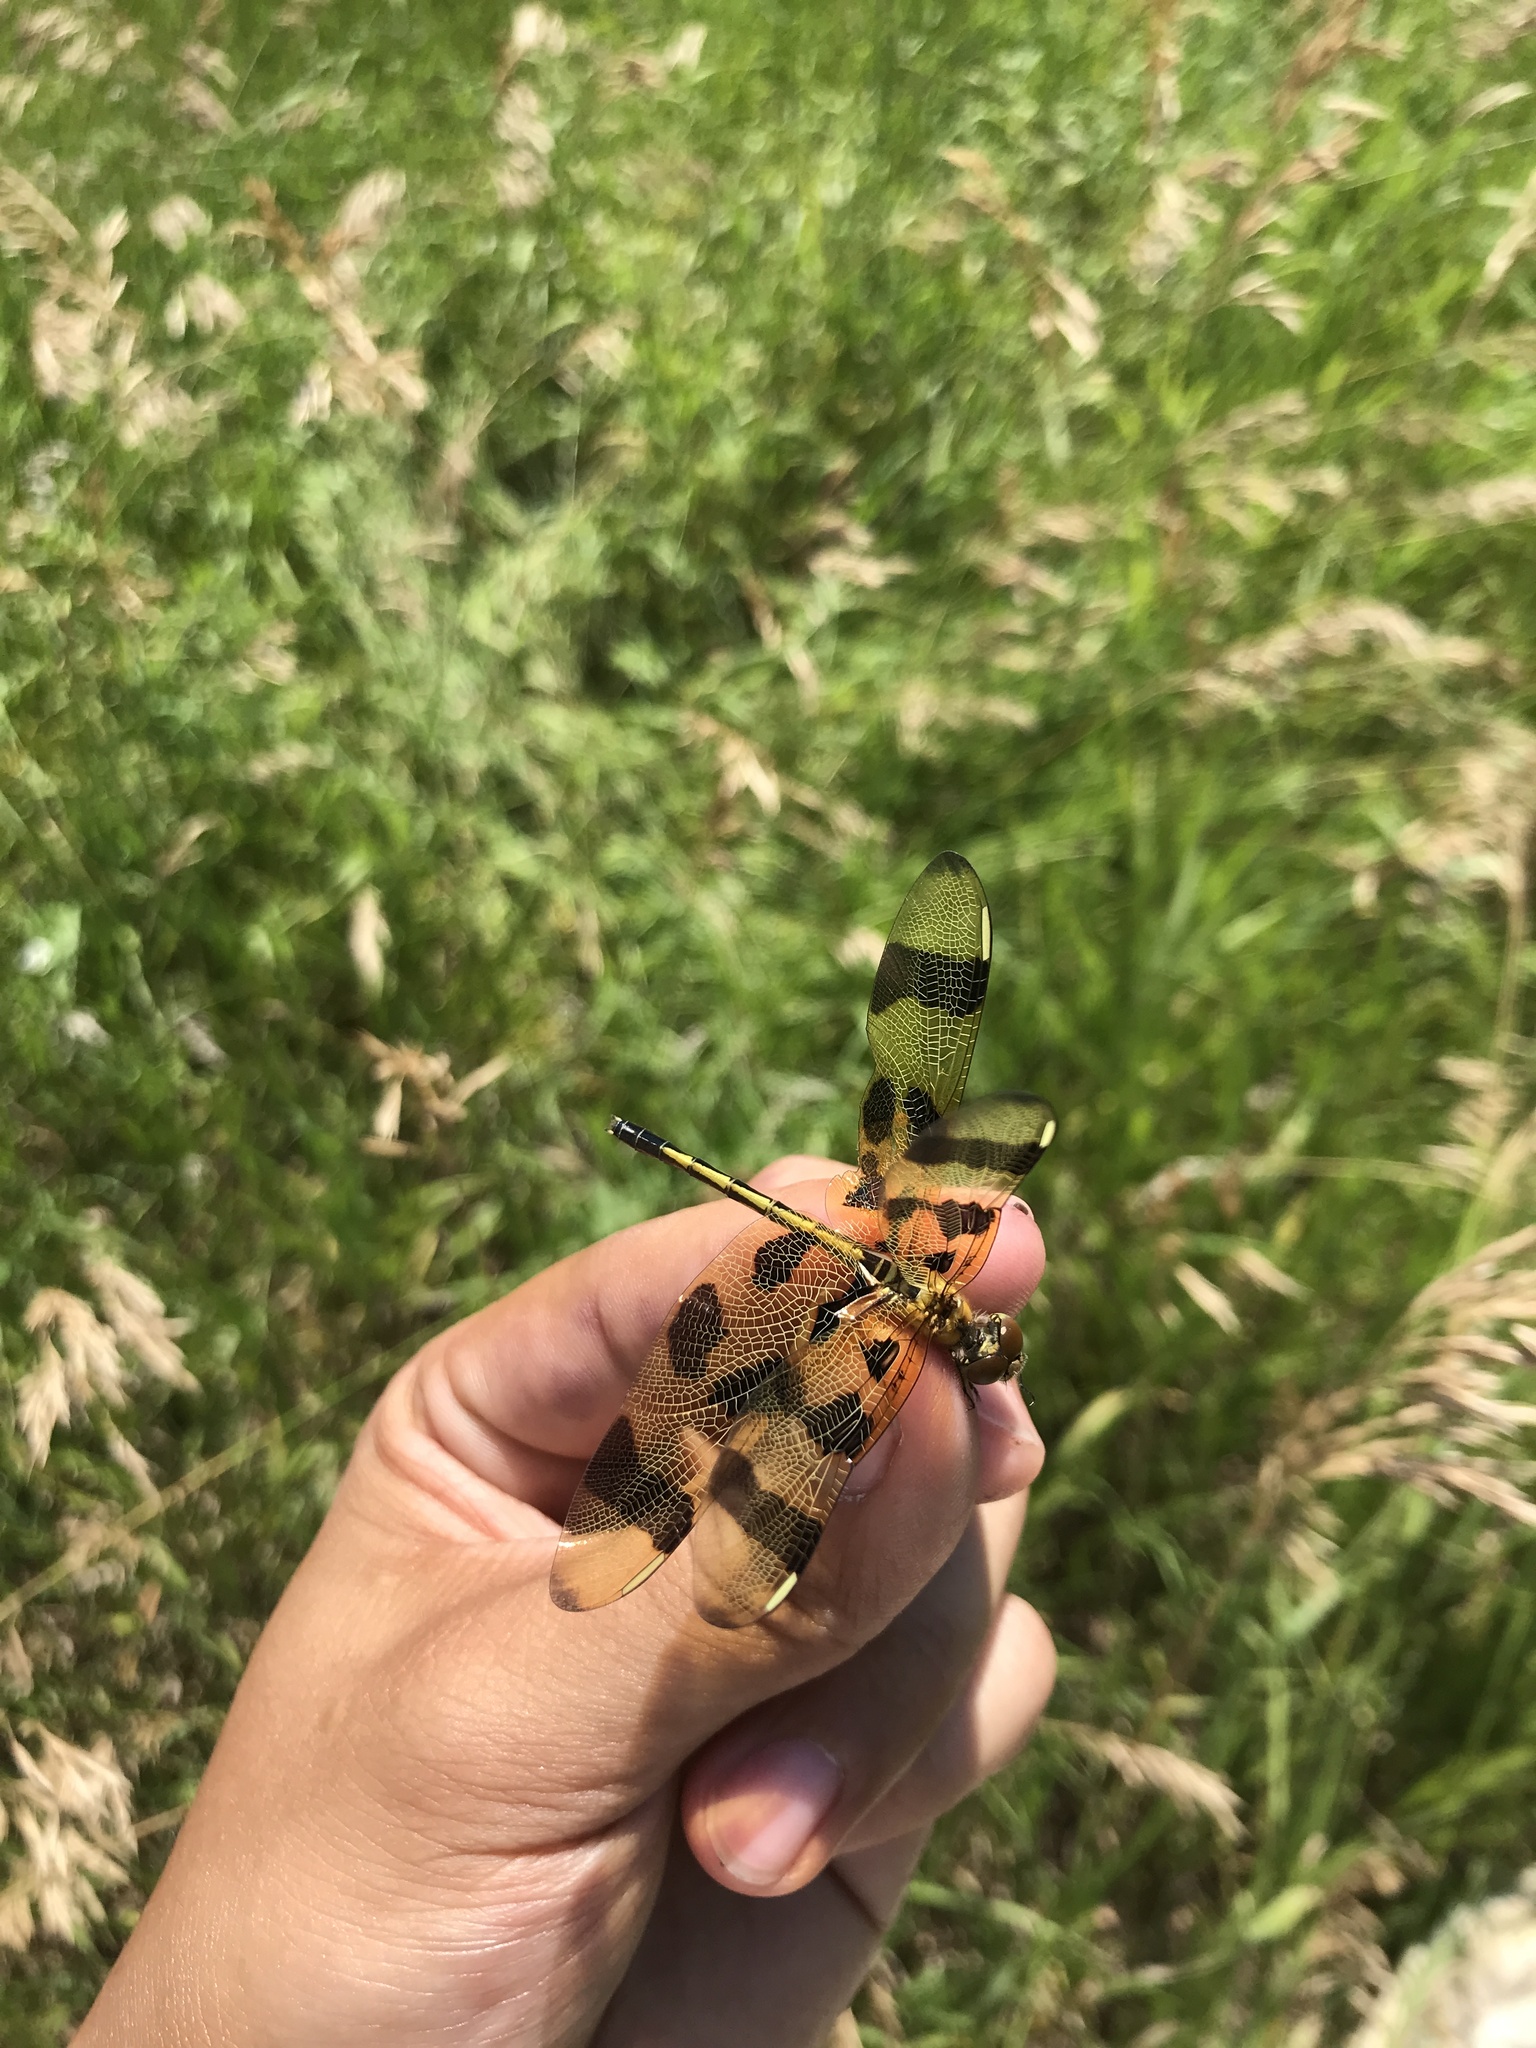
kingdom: Animalia
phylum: Arthropoda
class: Insecta
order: Odonata
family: Libellulidae
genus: Celithemis
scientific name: Celithemis eponina
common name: Halloween pennant
